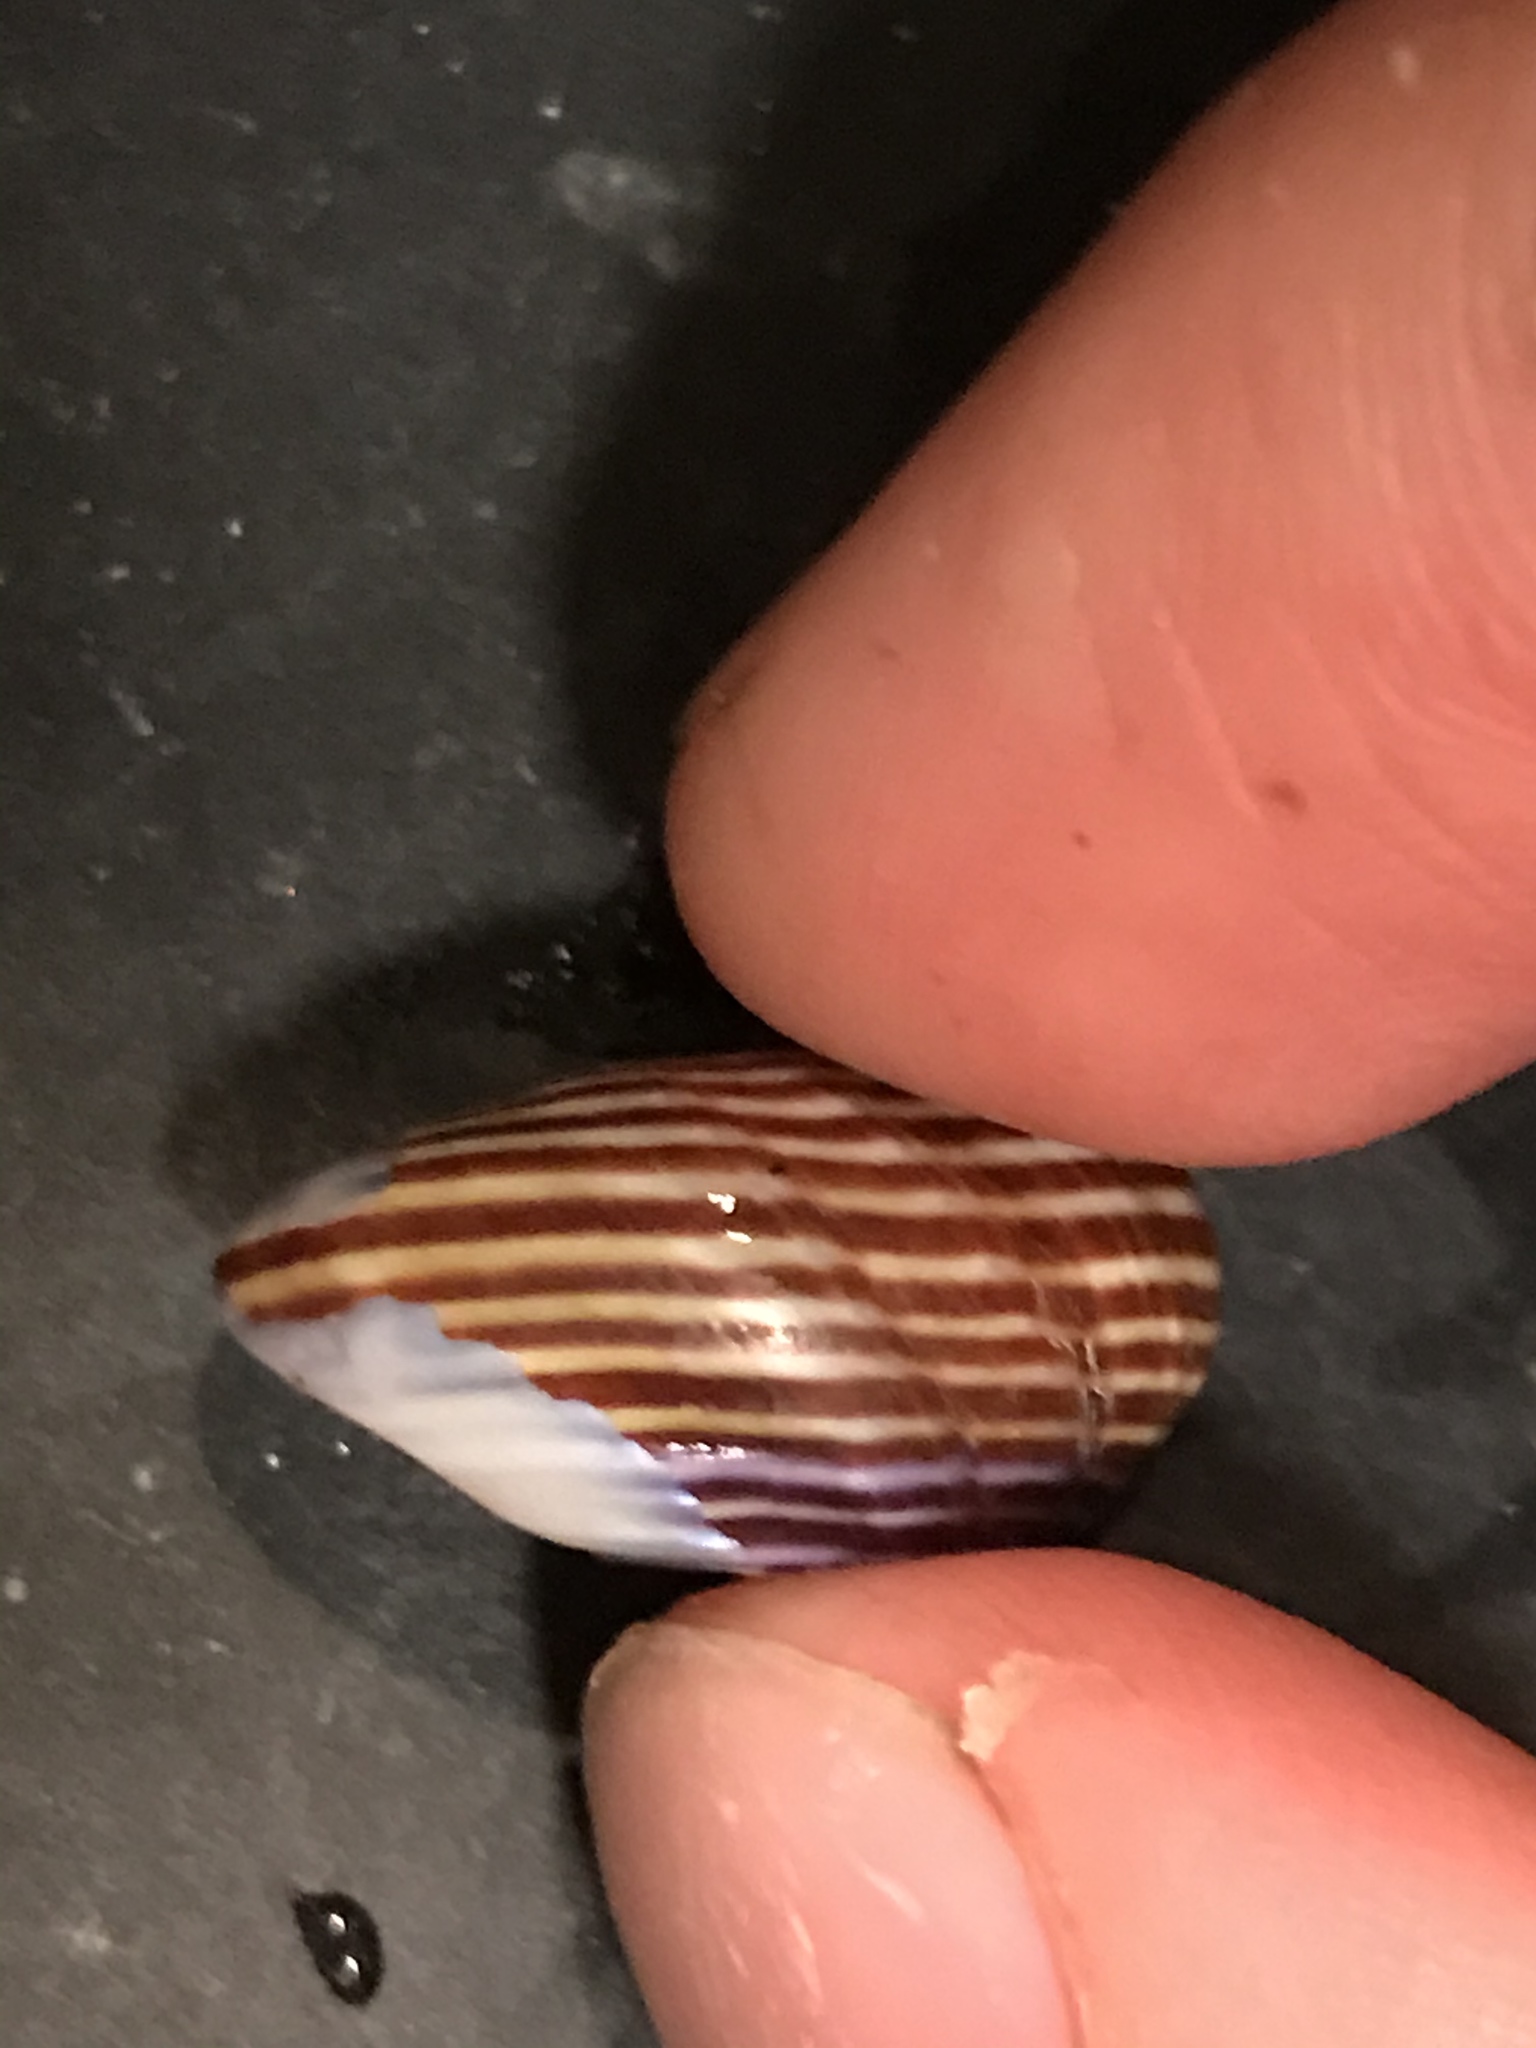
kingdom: Animalia
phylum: Mollusca
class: Gastropoda
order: Trochida
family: Calliostomatidae
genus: Calliostoma
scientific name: Calliostoma ligatum
